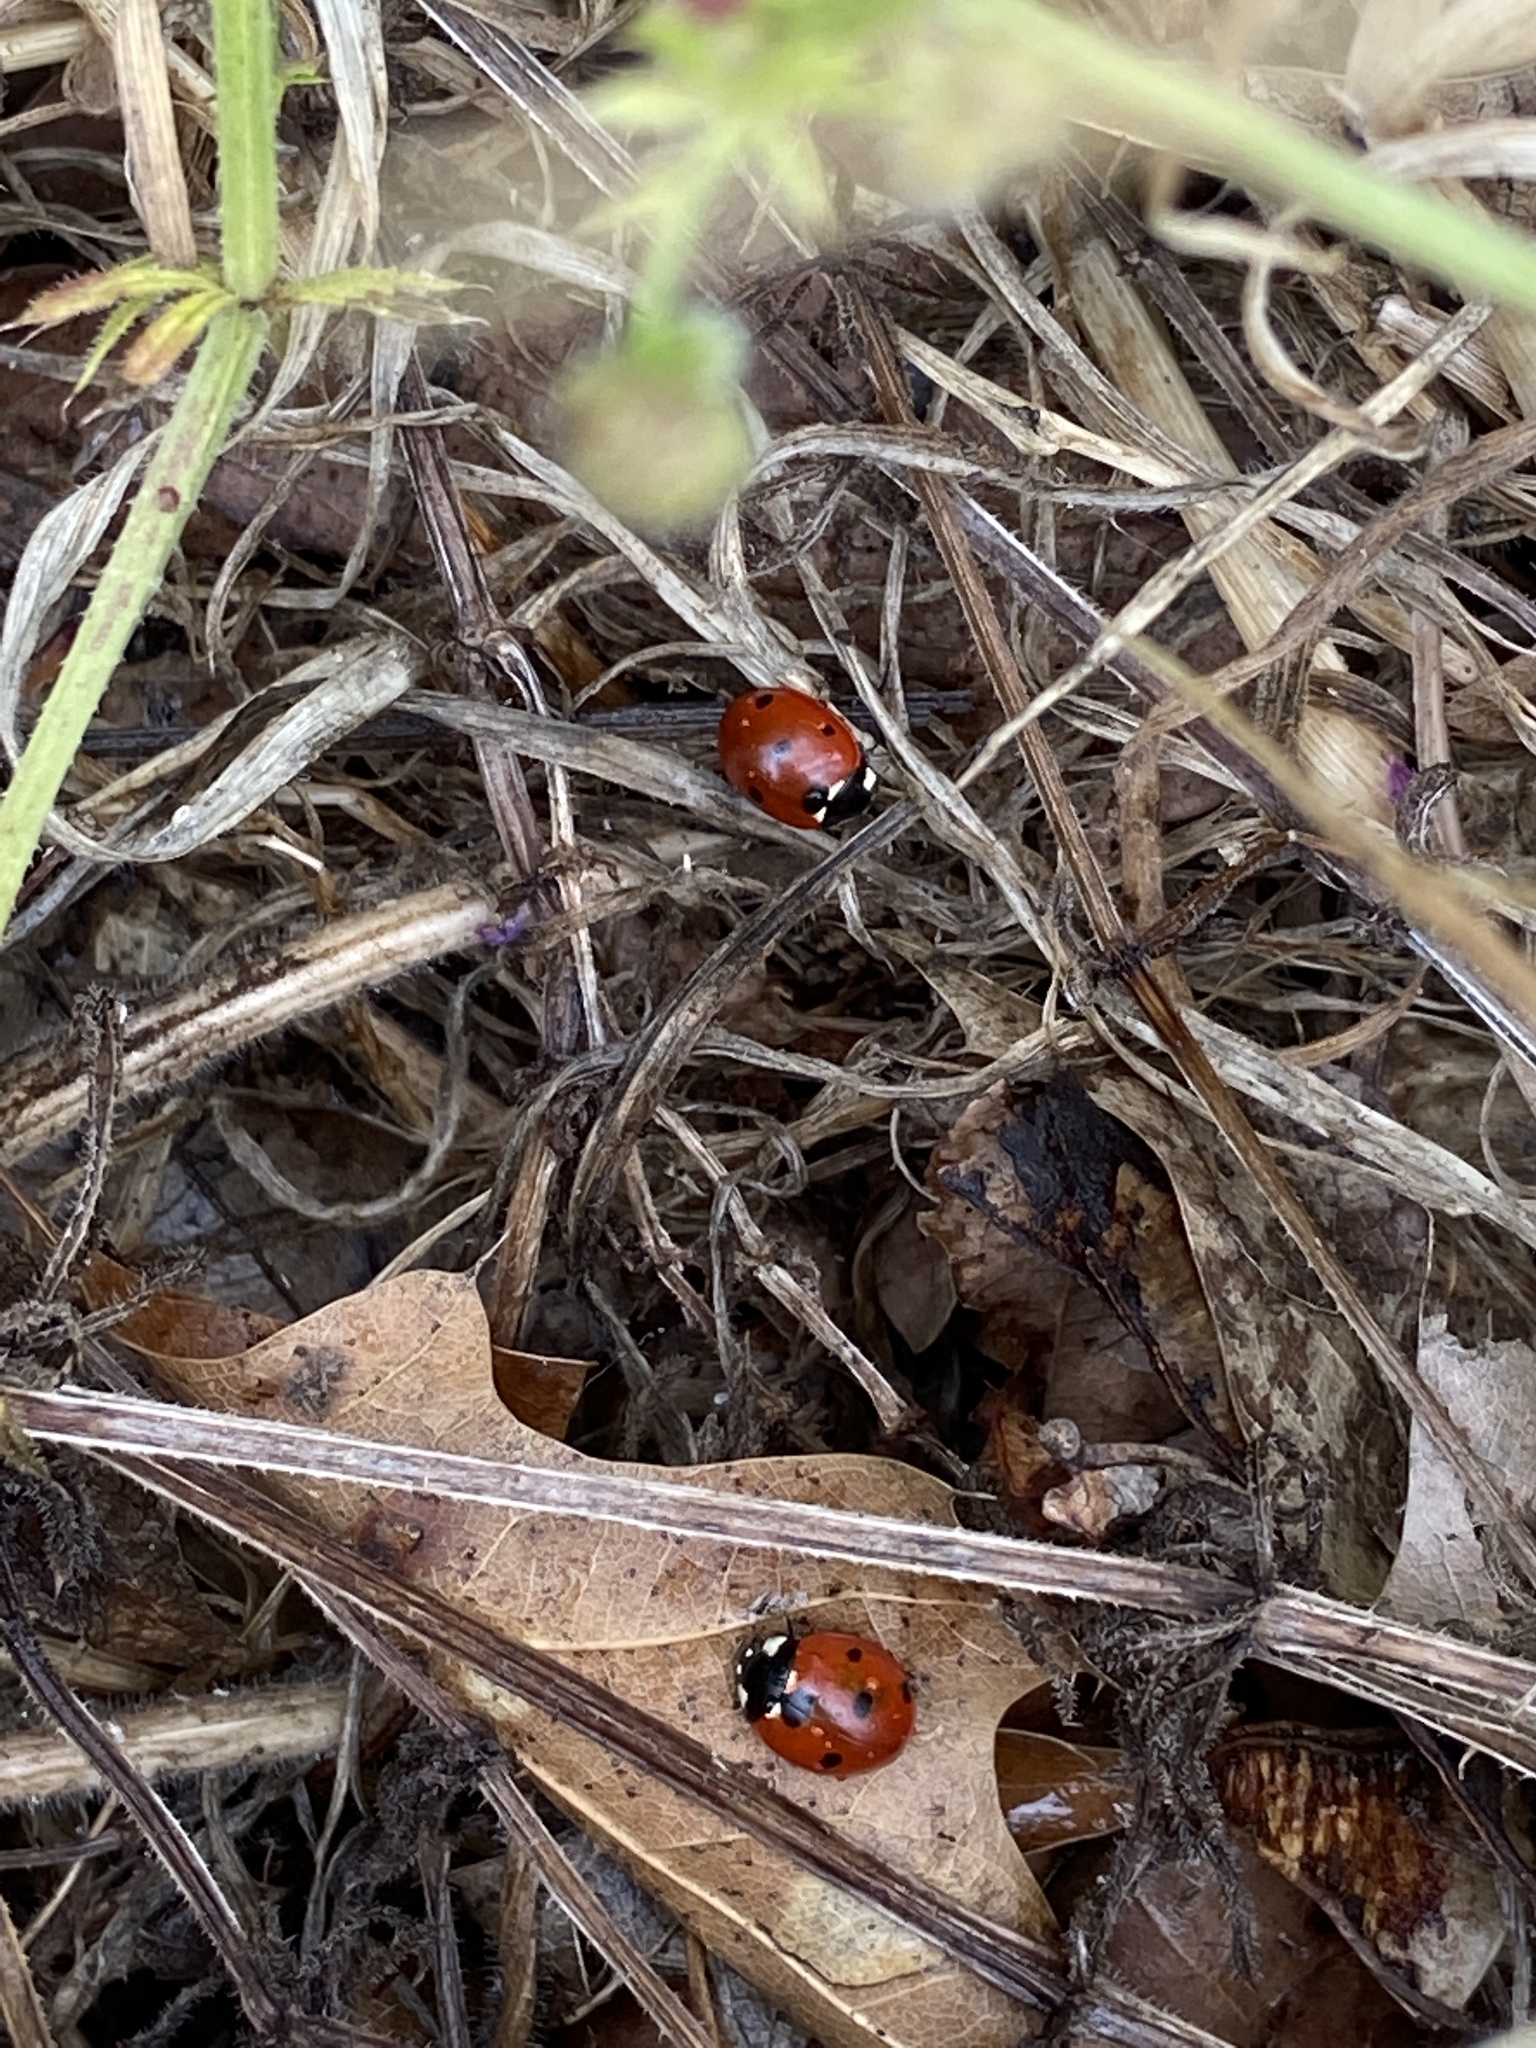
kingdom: Animalia
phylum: Arthropoda
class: Insecta
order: Coleoptera
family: Coccinellidae
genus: Coccinella
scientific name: Coccinella septempunctata
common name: Sevenspotted lady beetle
